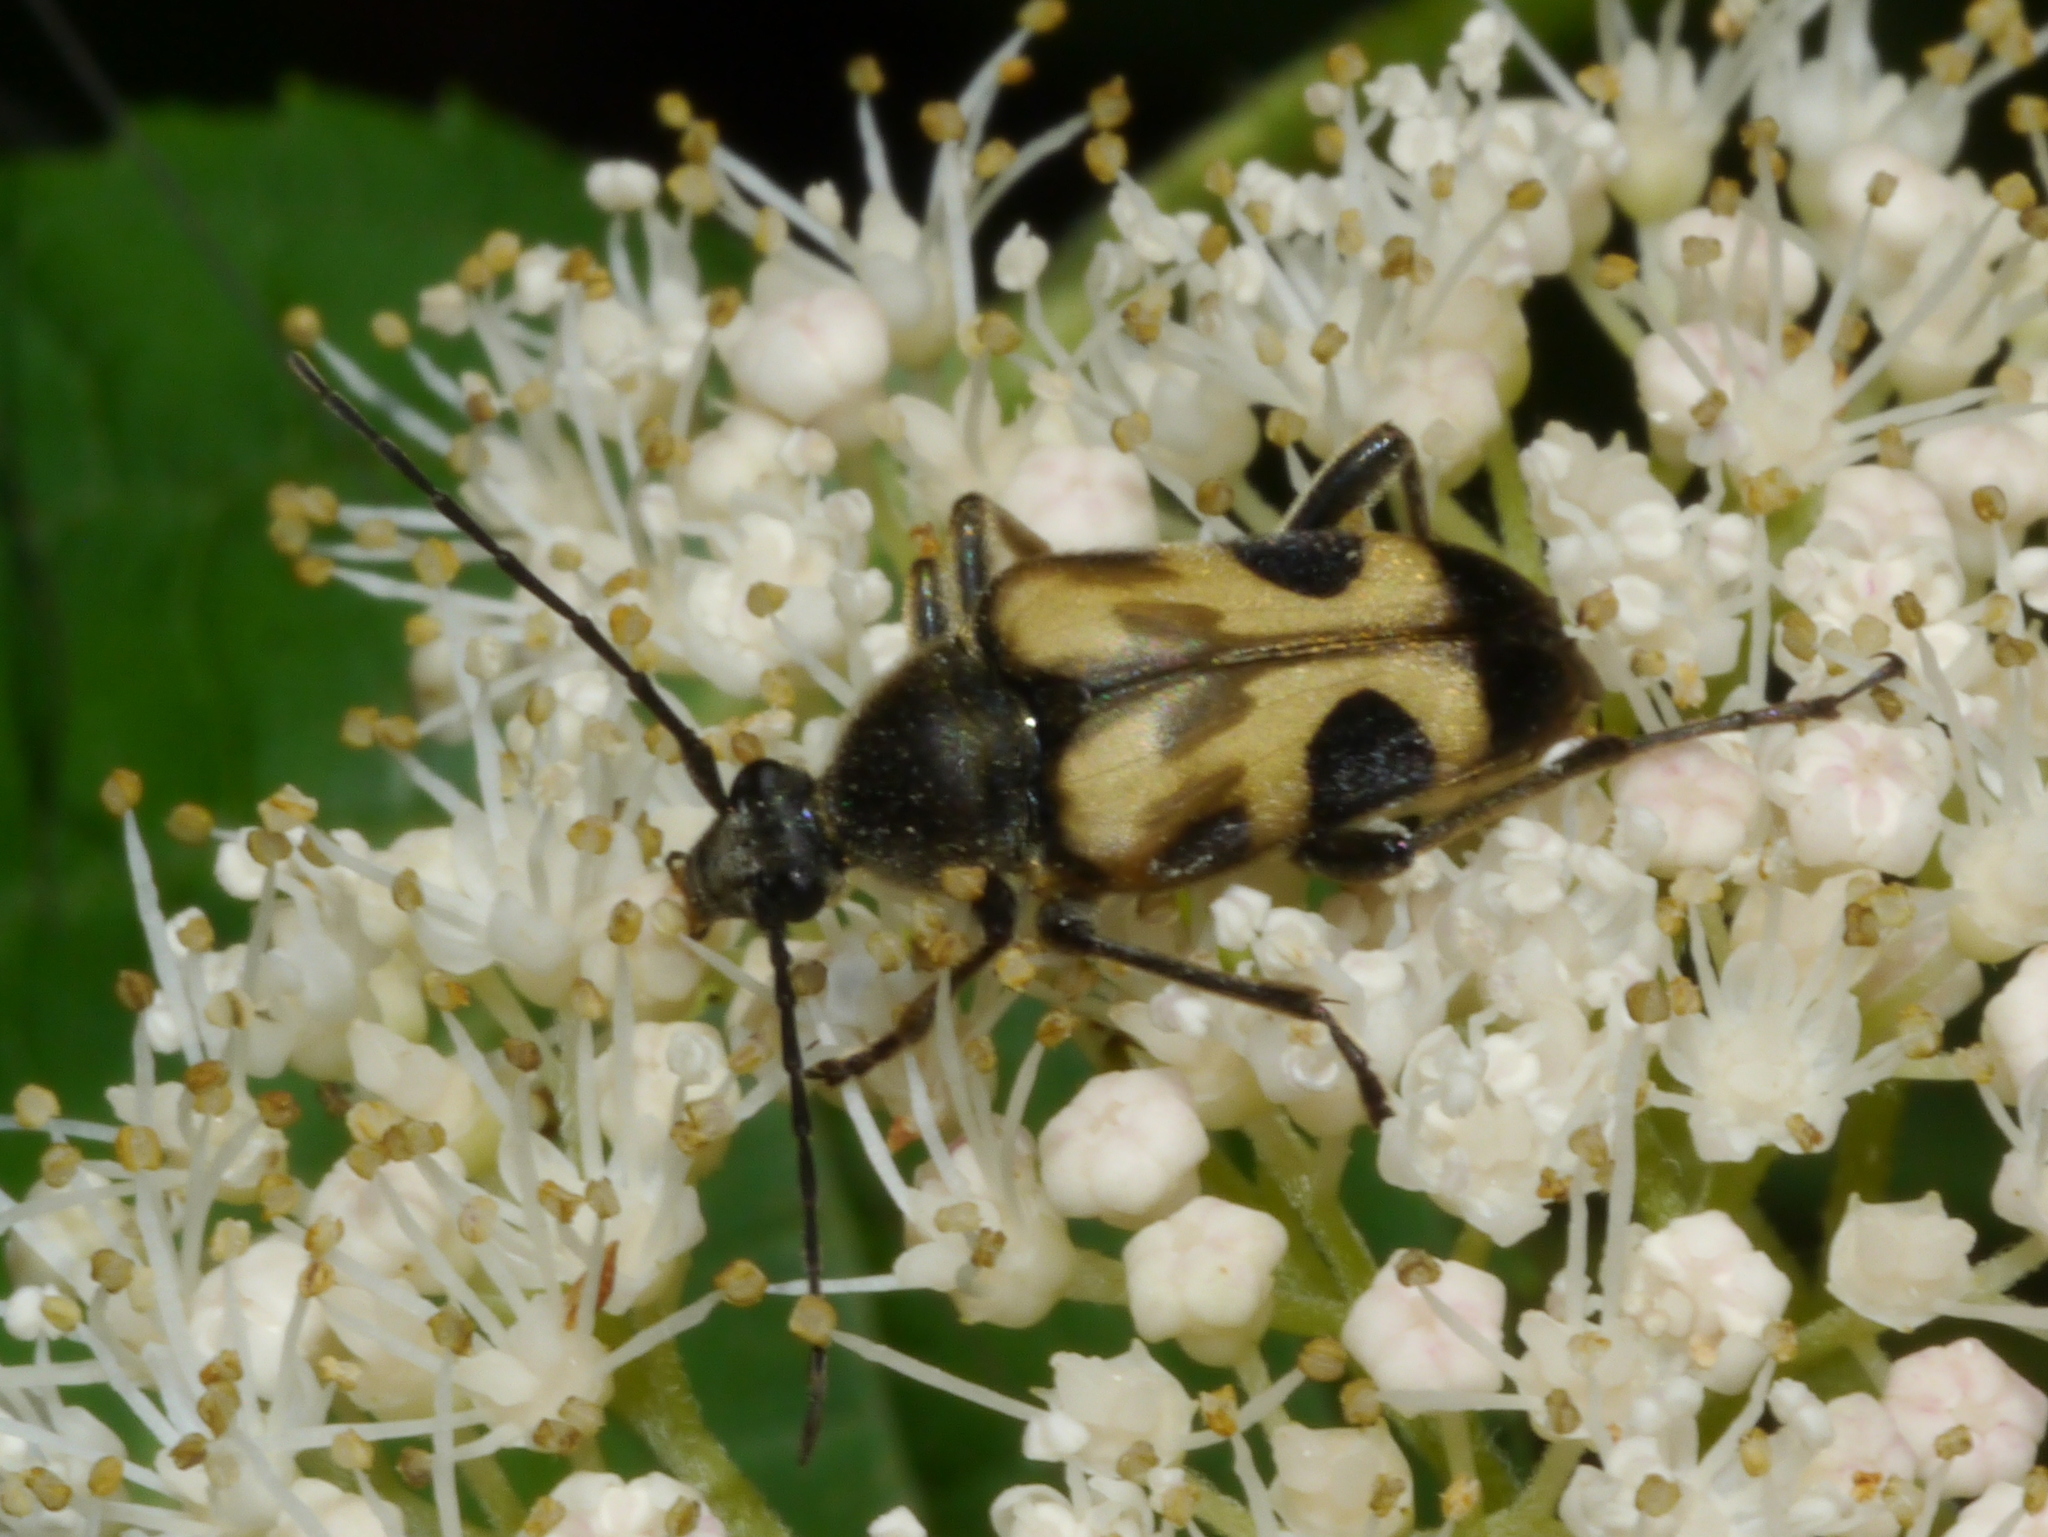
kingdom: Animalia
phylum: Arthropoda
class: Insecta
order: Coleoptera
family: Cerambycidae
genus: Judolia
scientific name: Judolia cordifera
